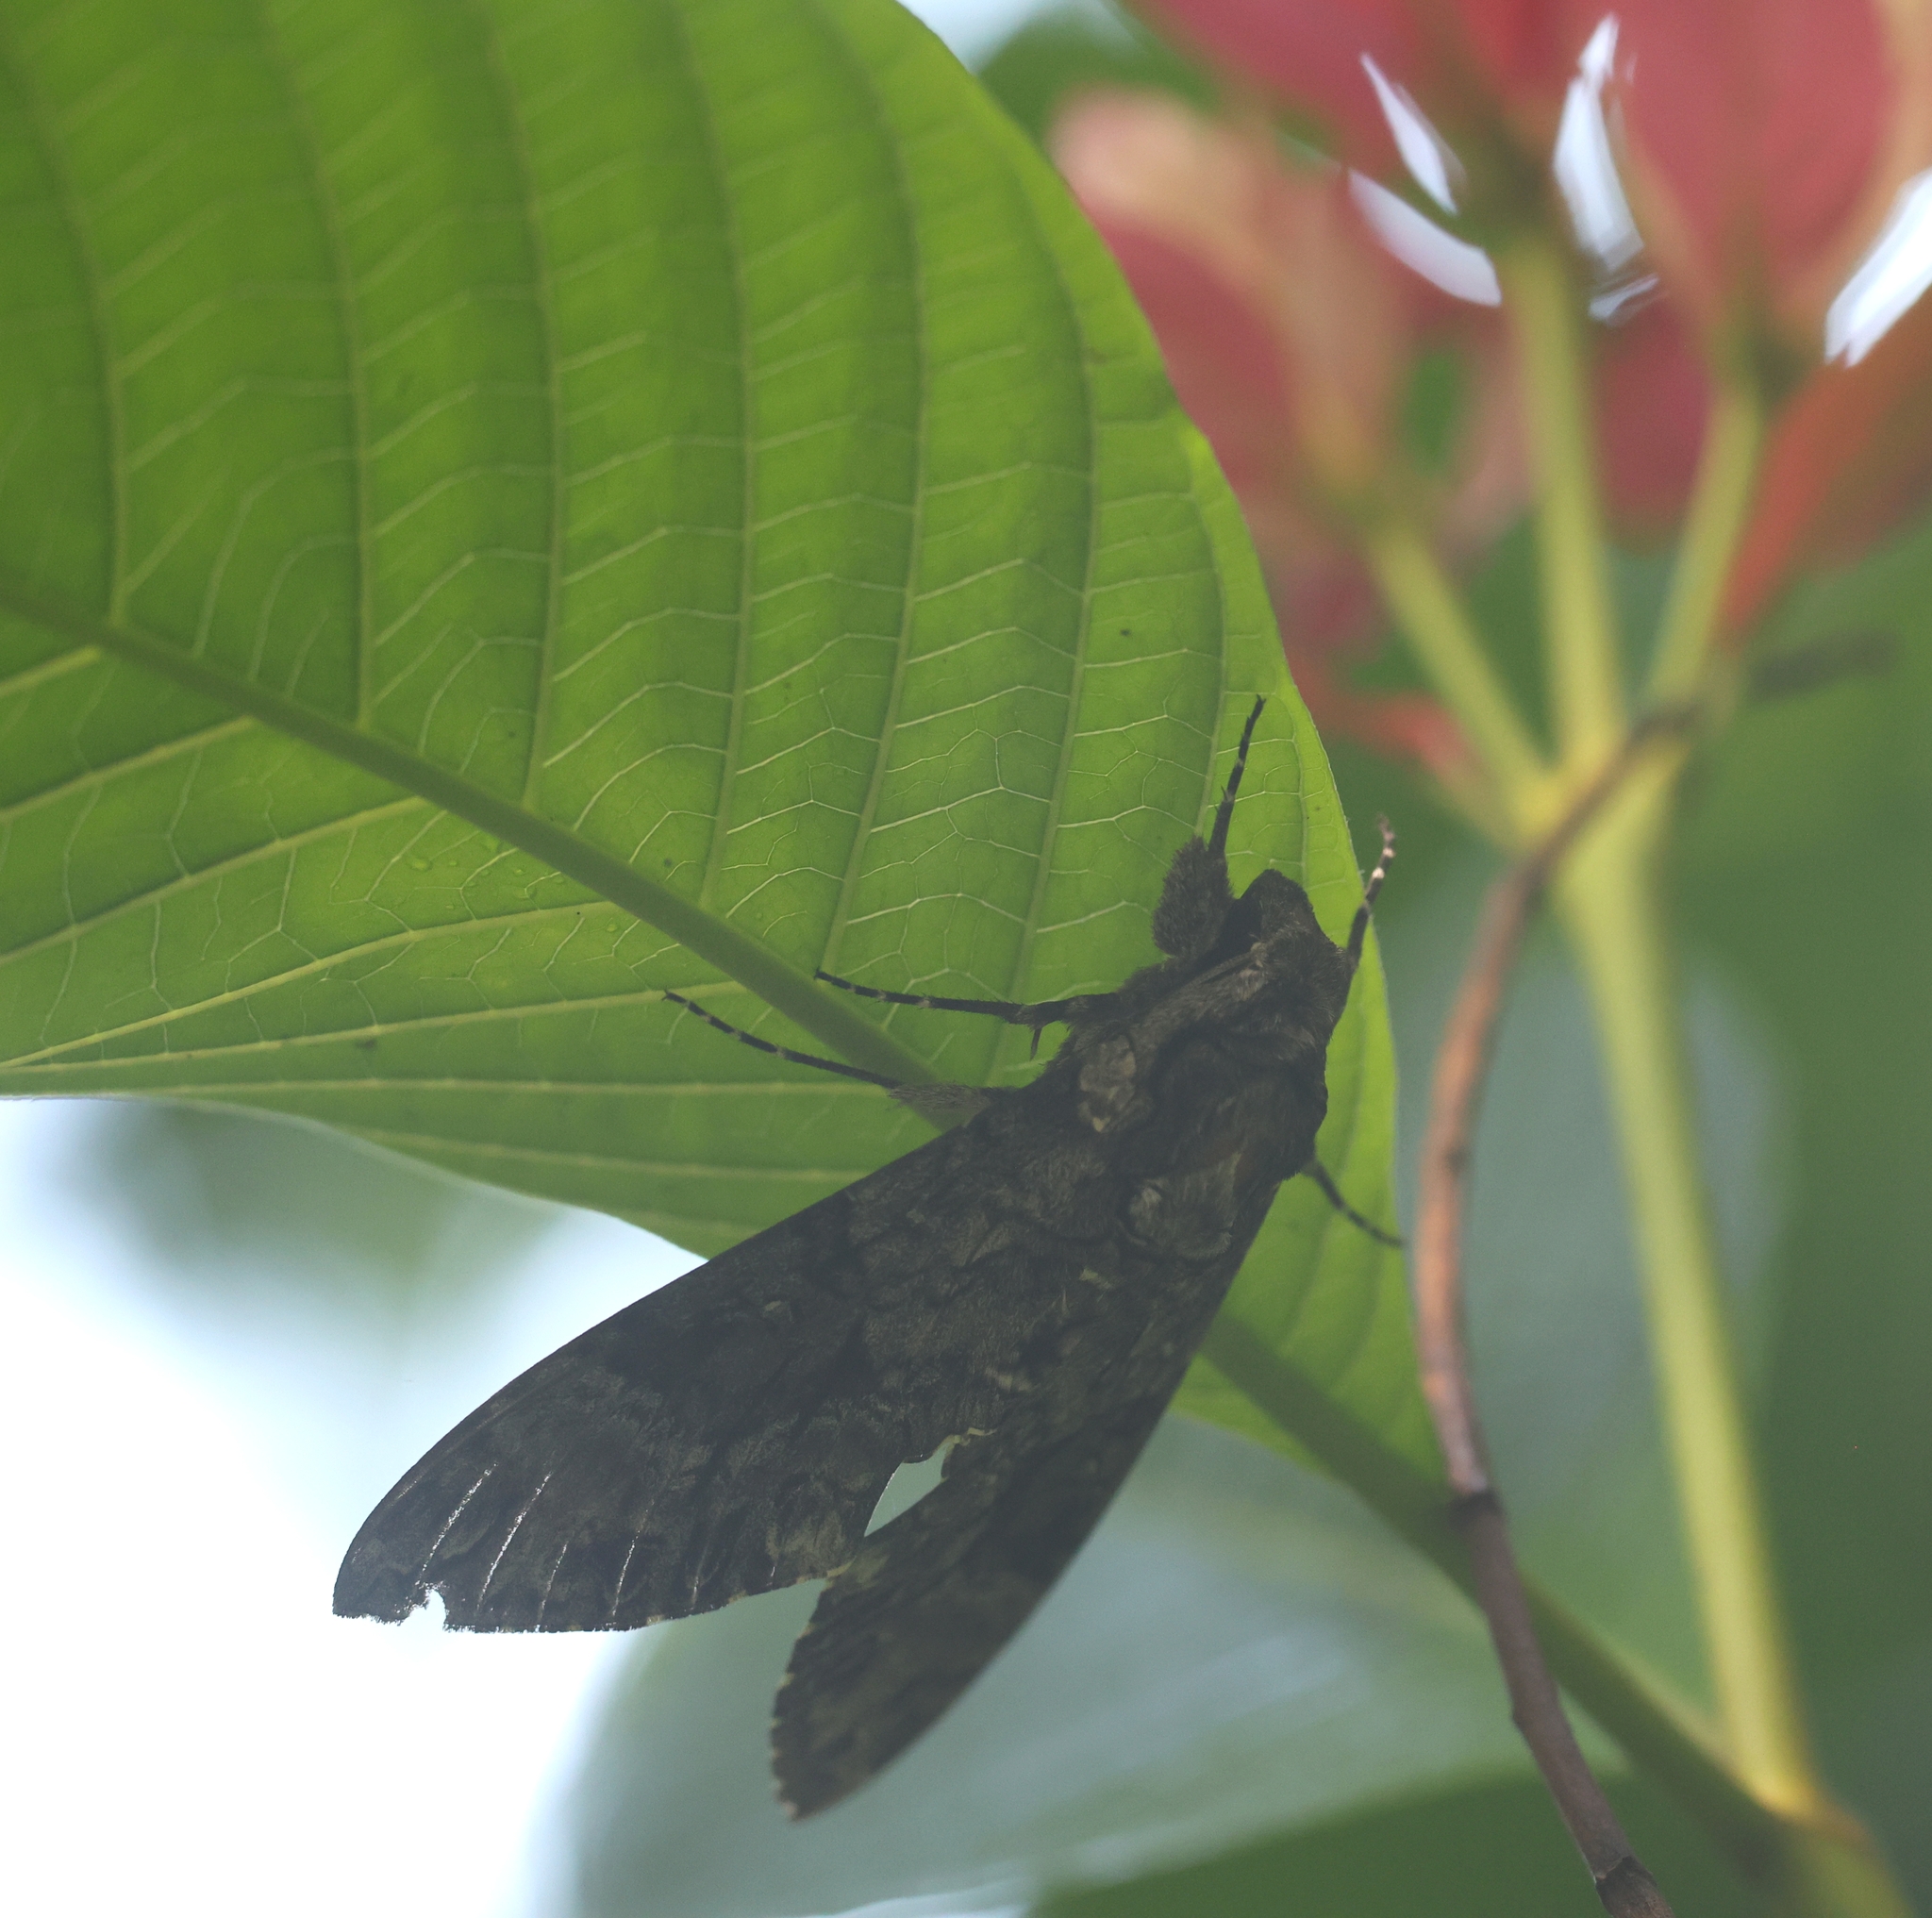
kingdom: Animalia
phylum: Arthropoda
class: Insecta
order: Lepidoptera
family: Sphingidae
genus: Agrius
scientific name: Agrius cingulata
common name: Pink-spotted hawkmoth
